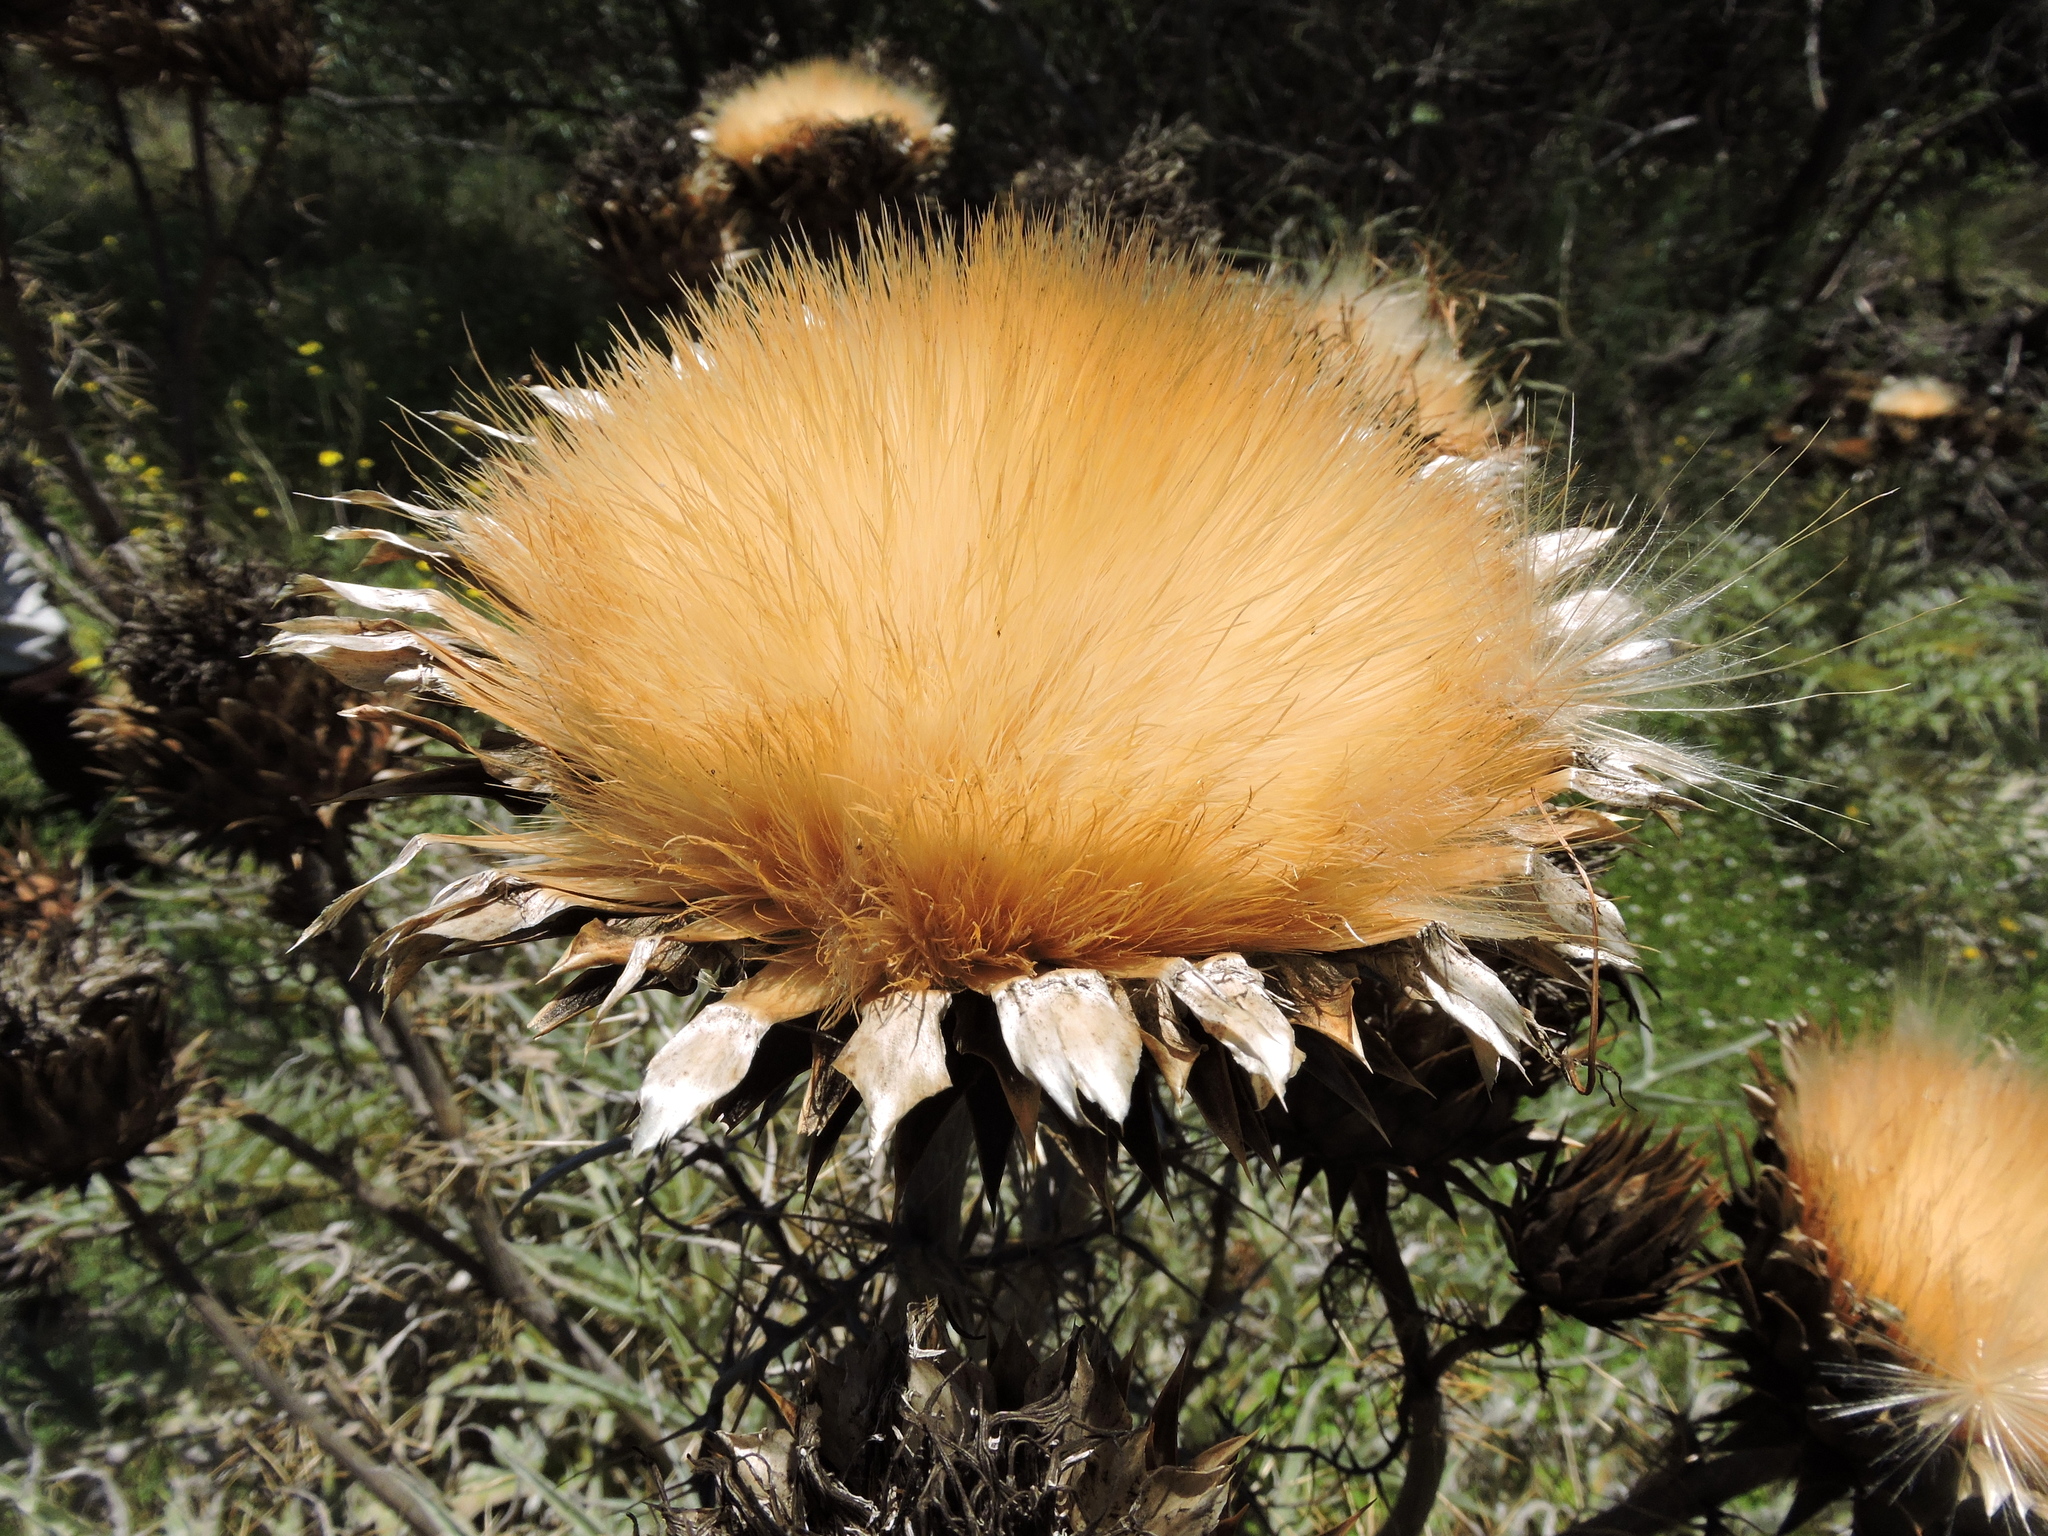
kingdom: Plantae
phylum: Tracheophyta
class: Magnoliopsida
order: Asterales
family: Asteraceae
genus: Cynara
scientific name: Cynara cardunculus
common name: Globe artichoke
